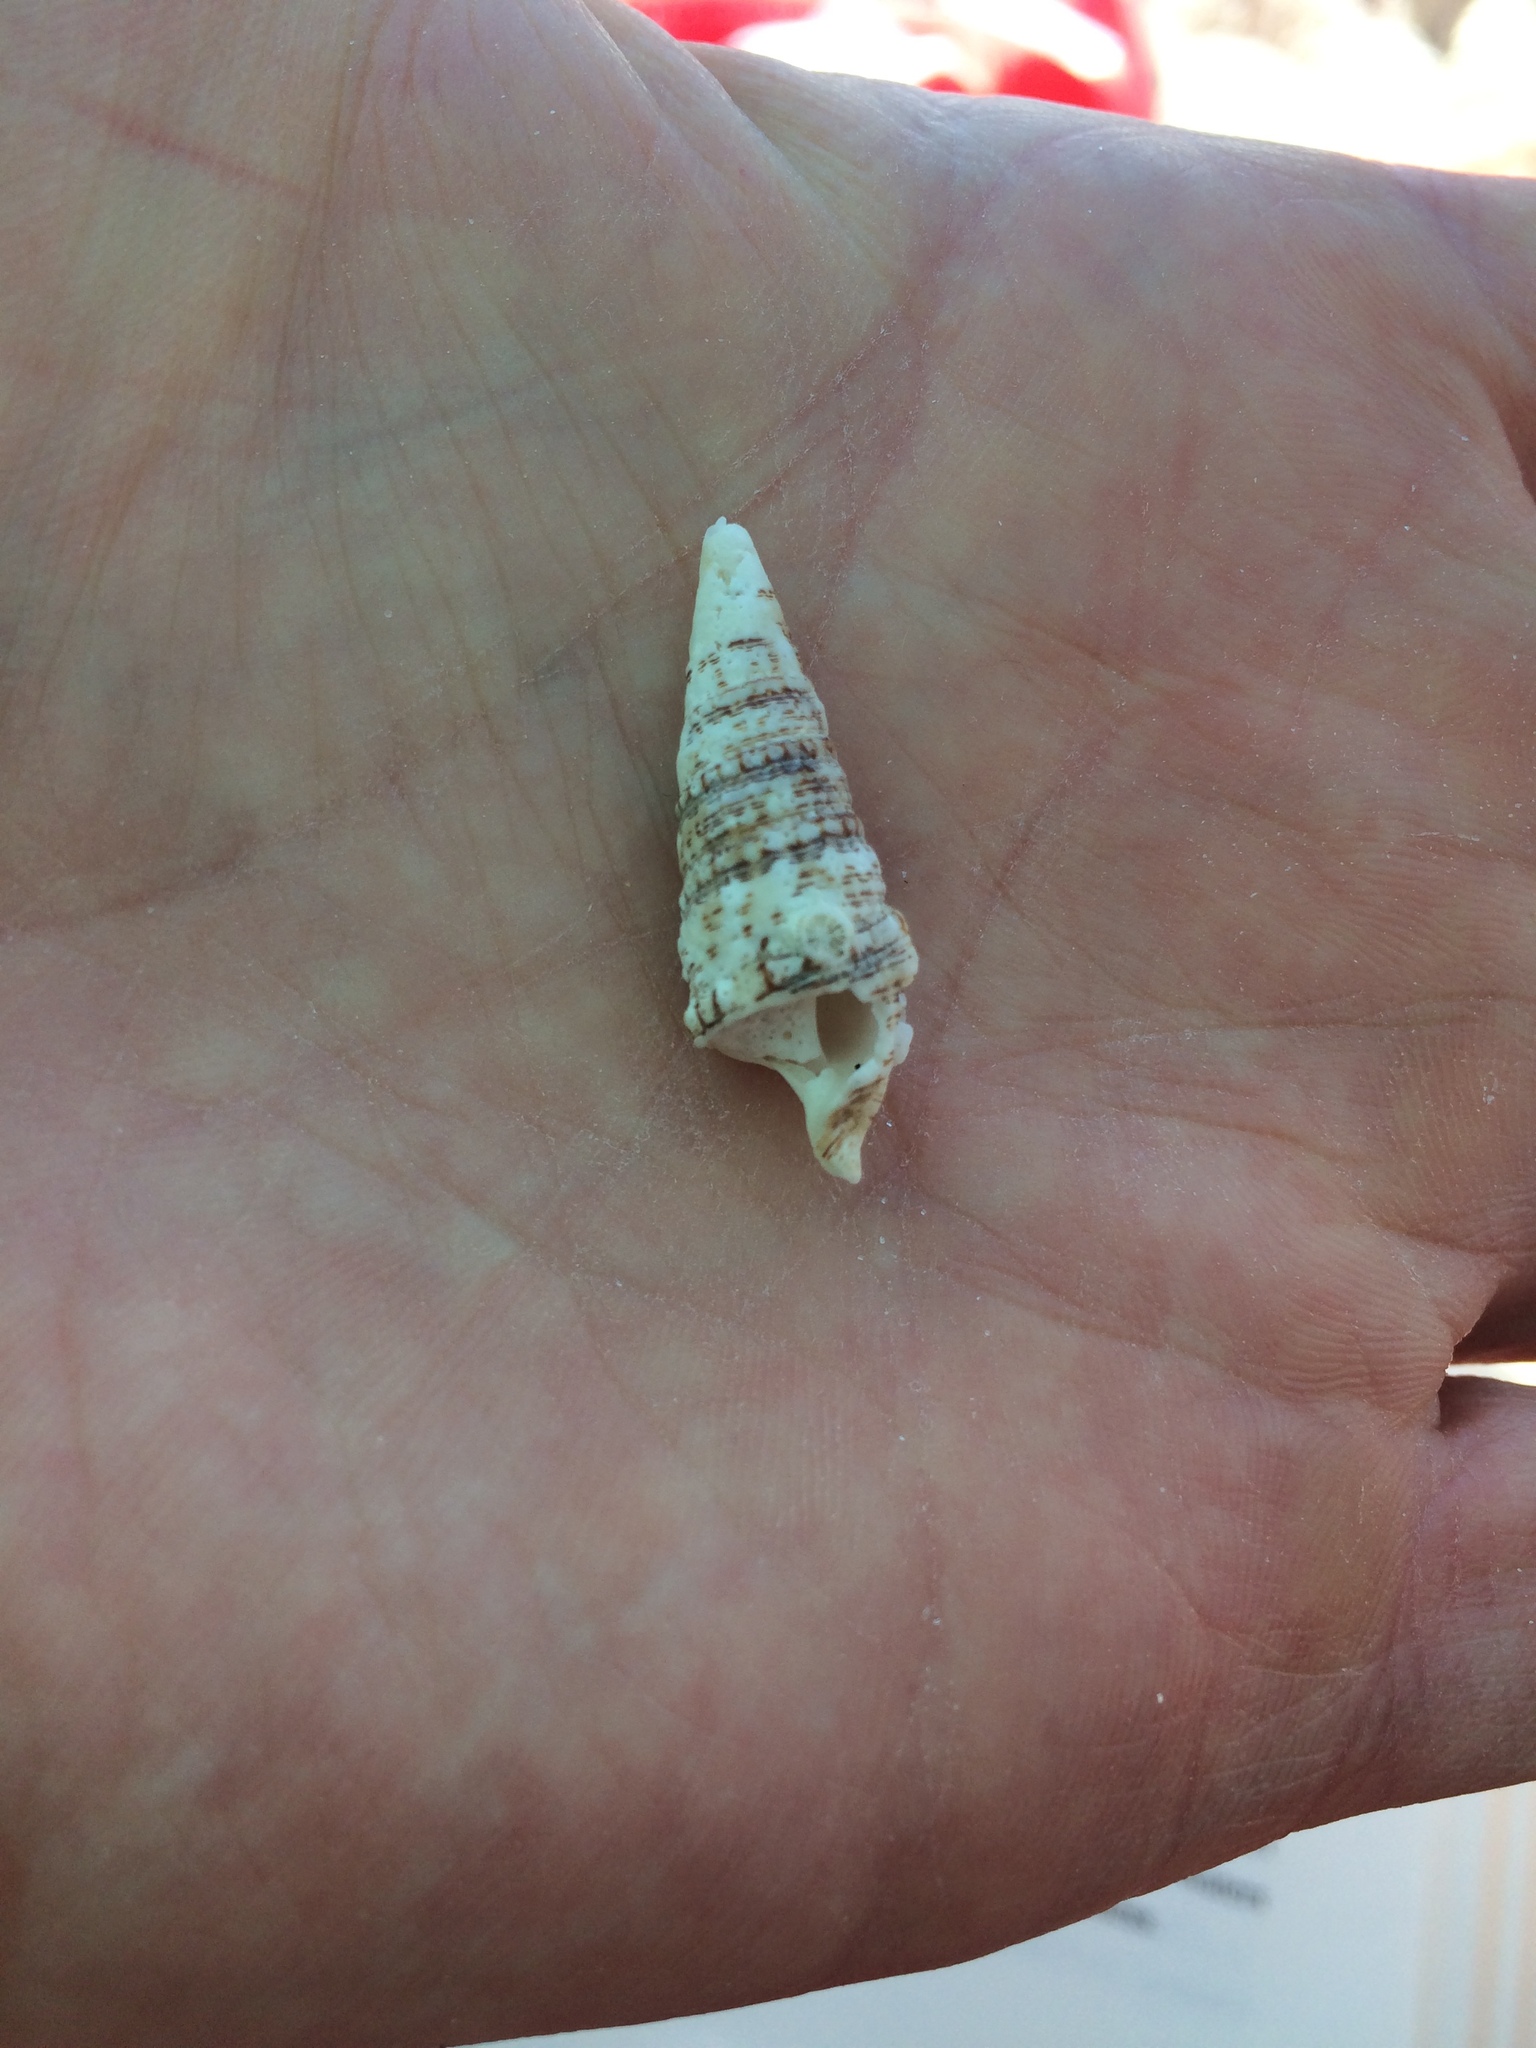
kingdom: Animalia
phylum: Mollusca
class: Gastropoda
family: Cerithiidae
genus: Cerithium
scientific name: Cerithium atratum
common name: Dark cerith
